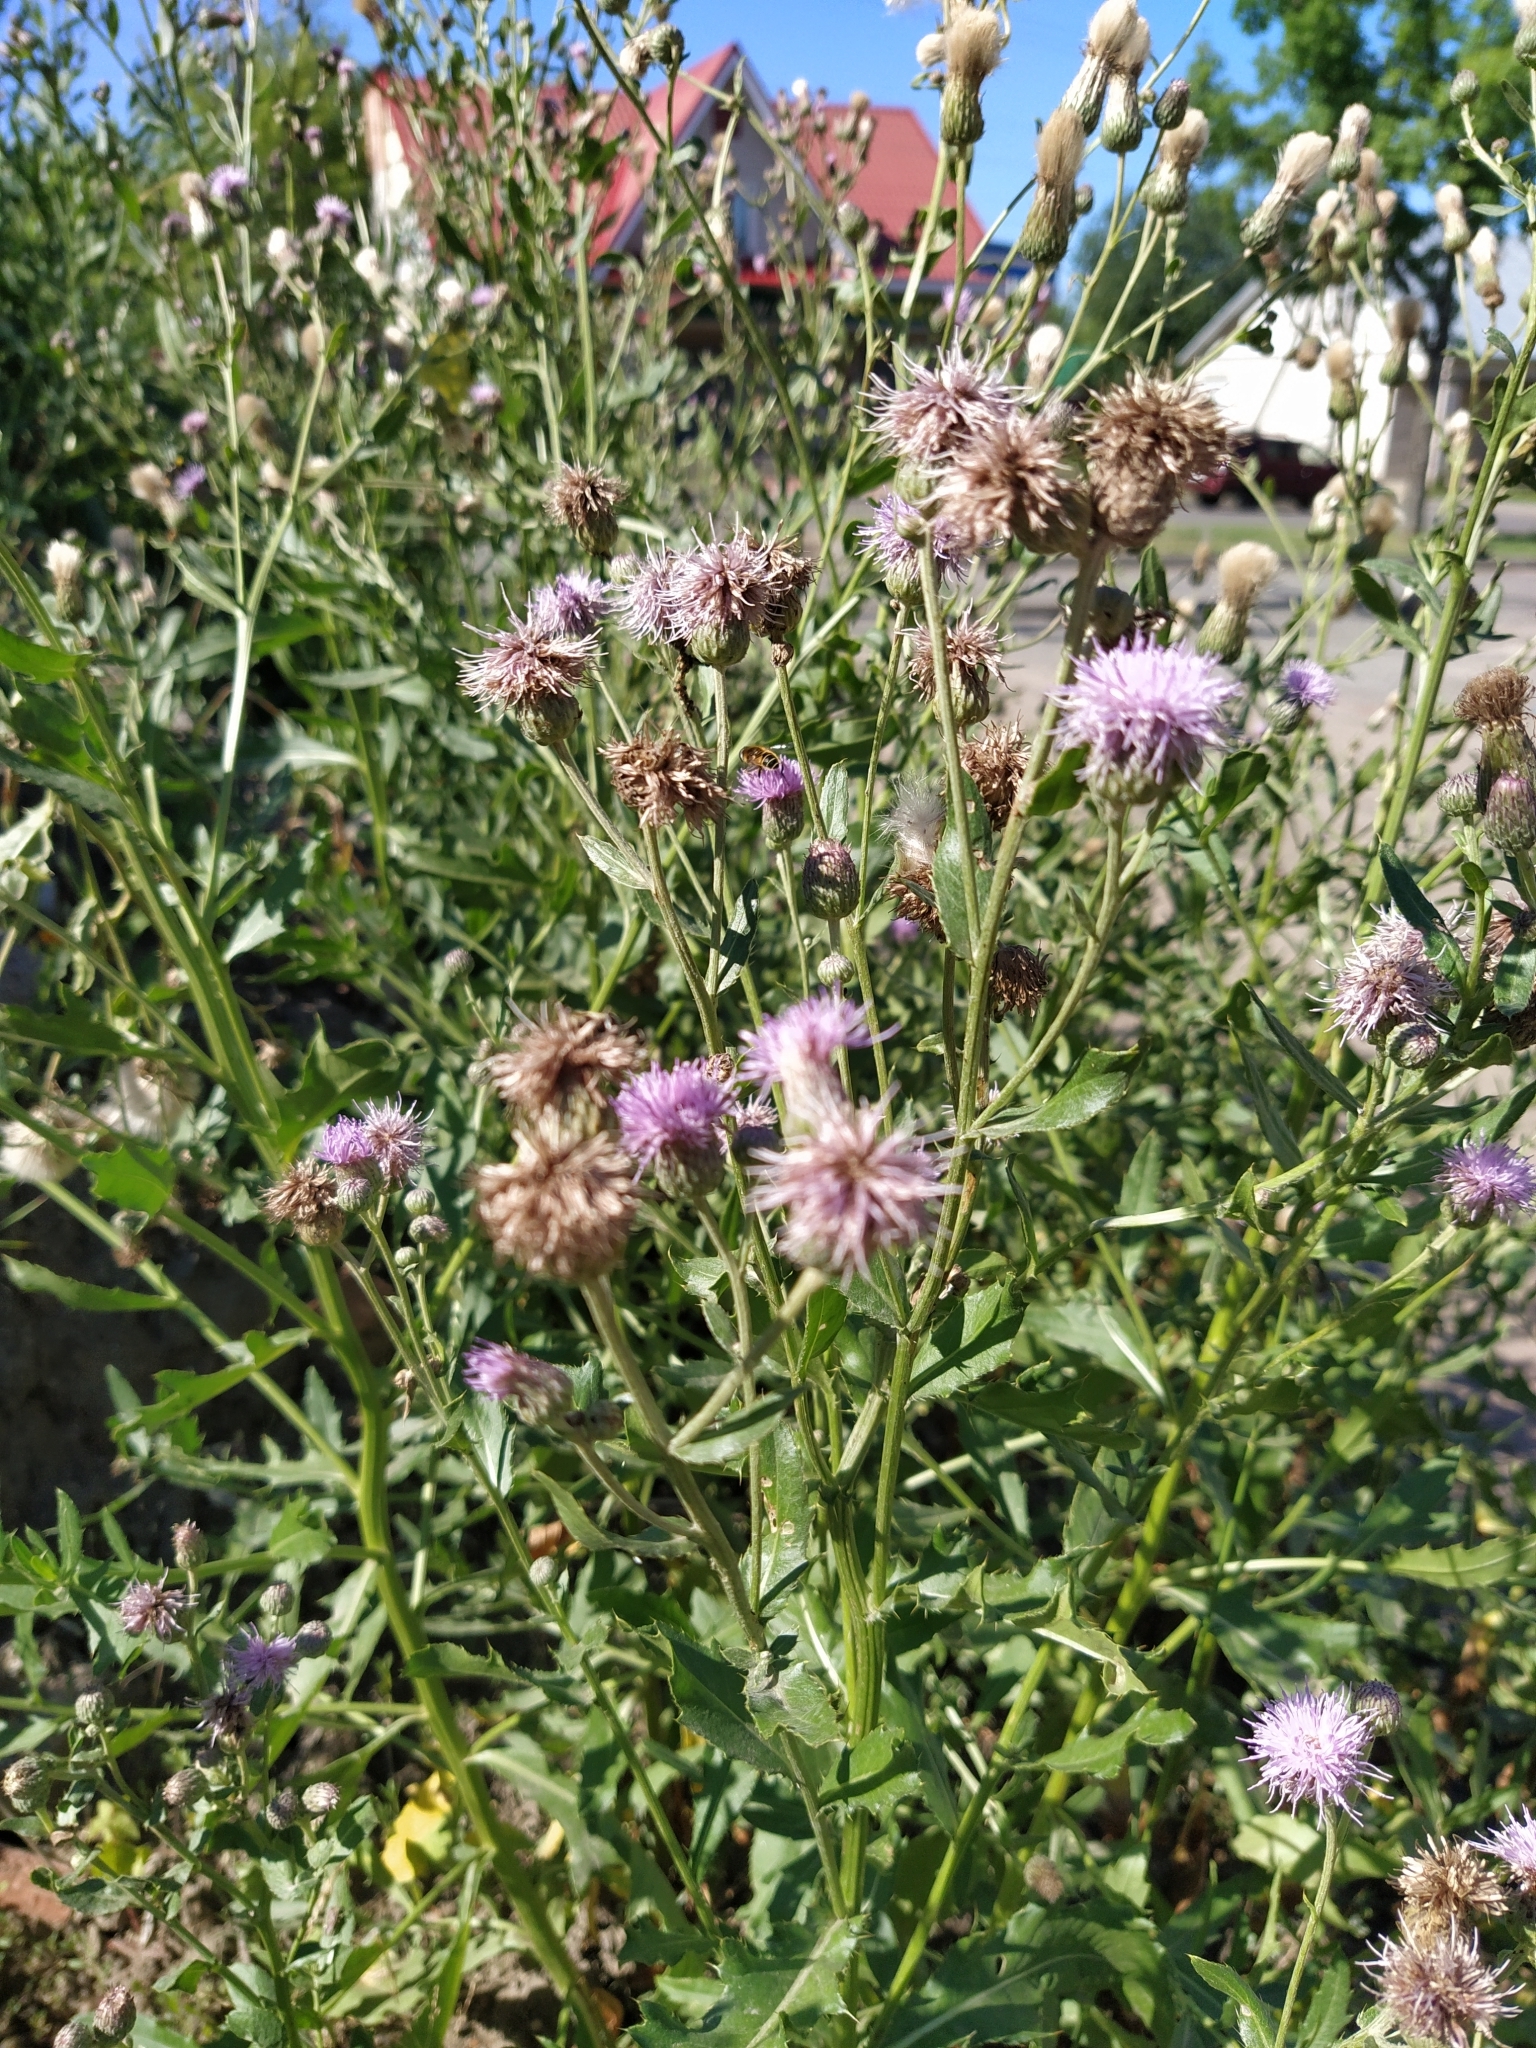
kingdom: Plantae
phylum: Tracheophyta
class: Magnoliopsida
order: Asterales
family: Asteraceae
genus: Cirsium
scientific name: Cirsium arvense
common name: Creeping thistle
